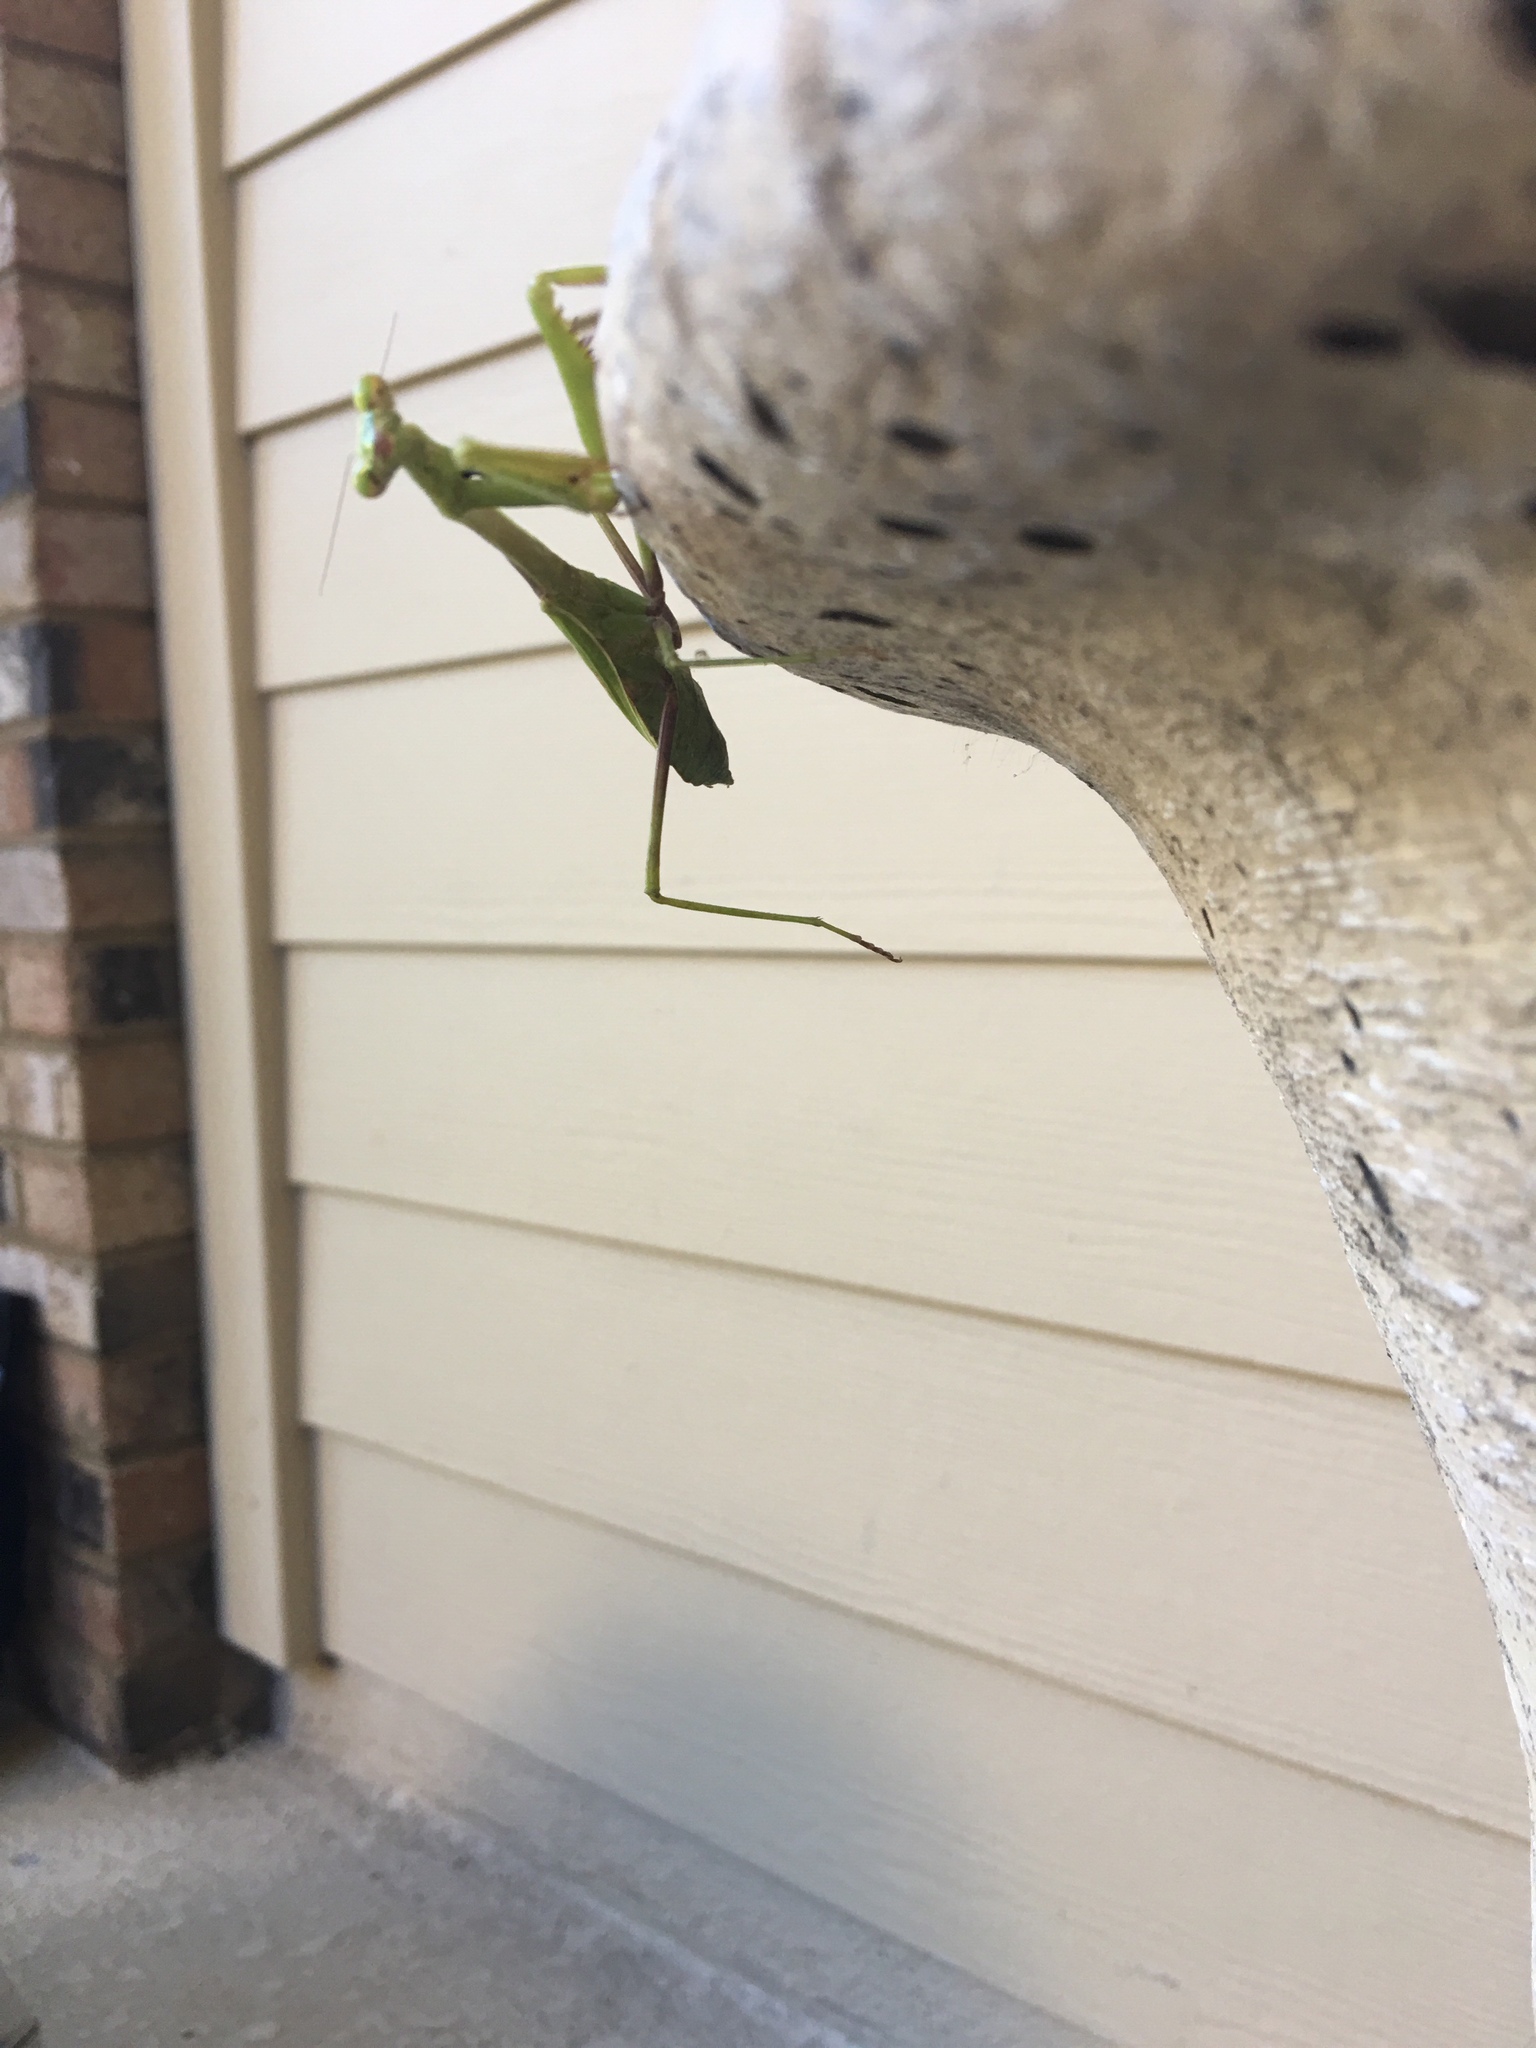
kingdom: Animalia
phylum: Arthropoda
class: Insecta
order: Mantodea
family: Mantidae
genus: Stagmomantis
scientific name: Stagmomantis carolina
